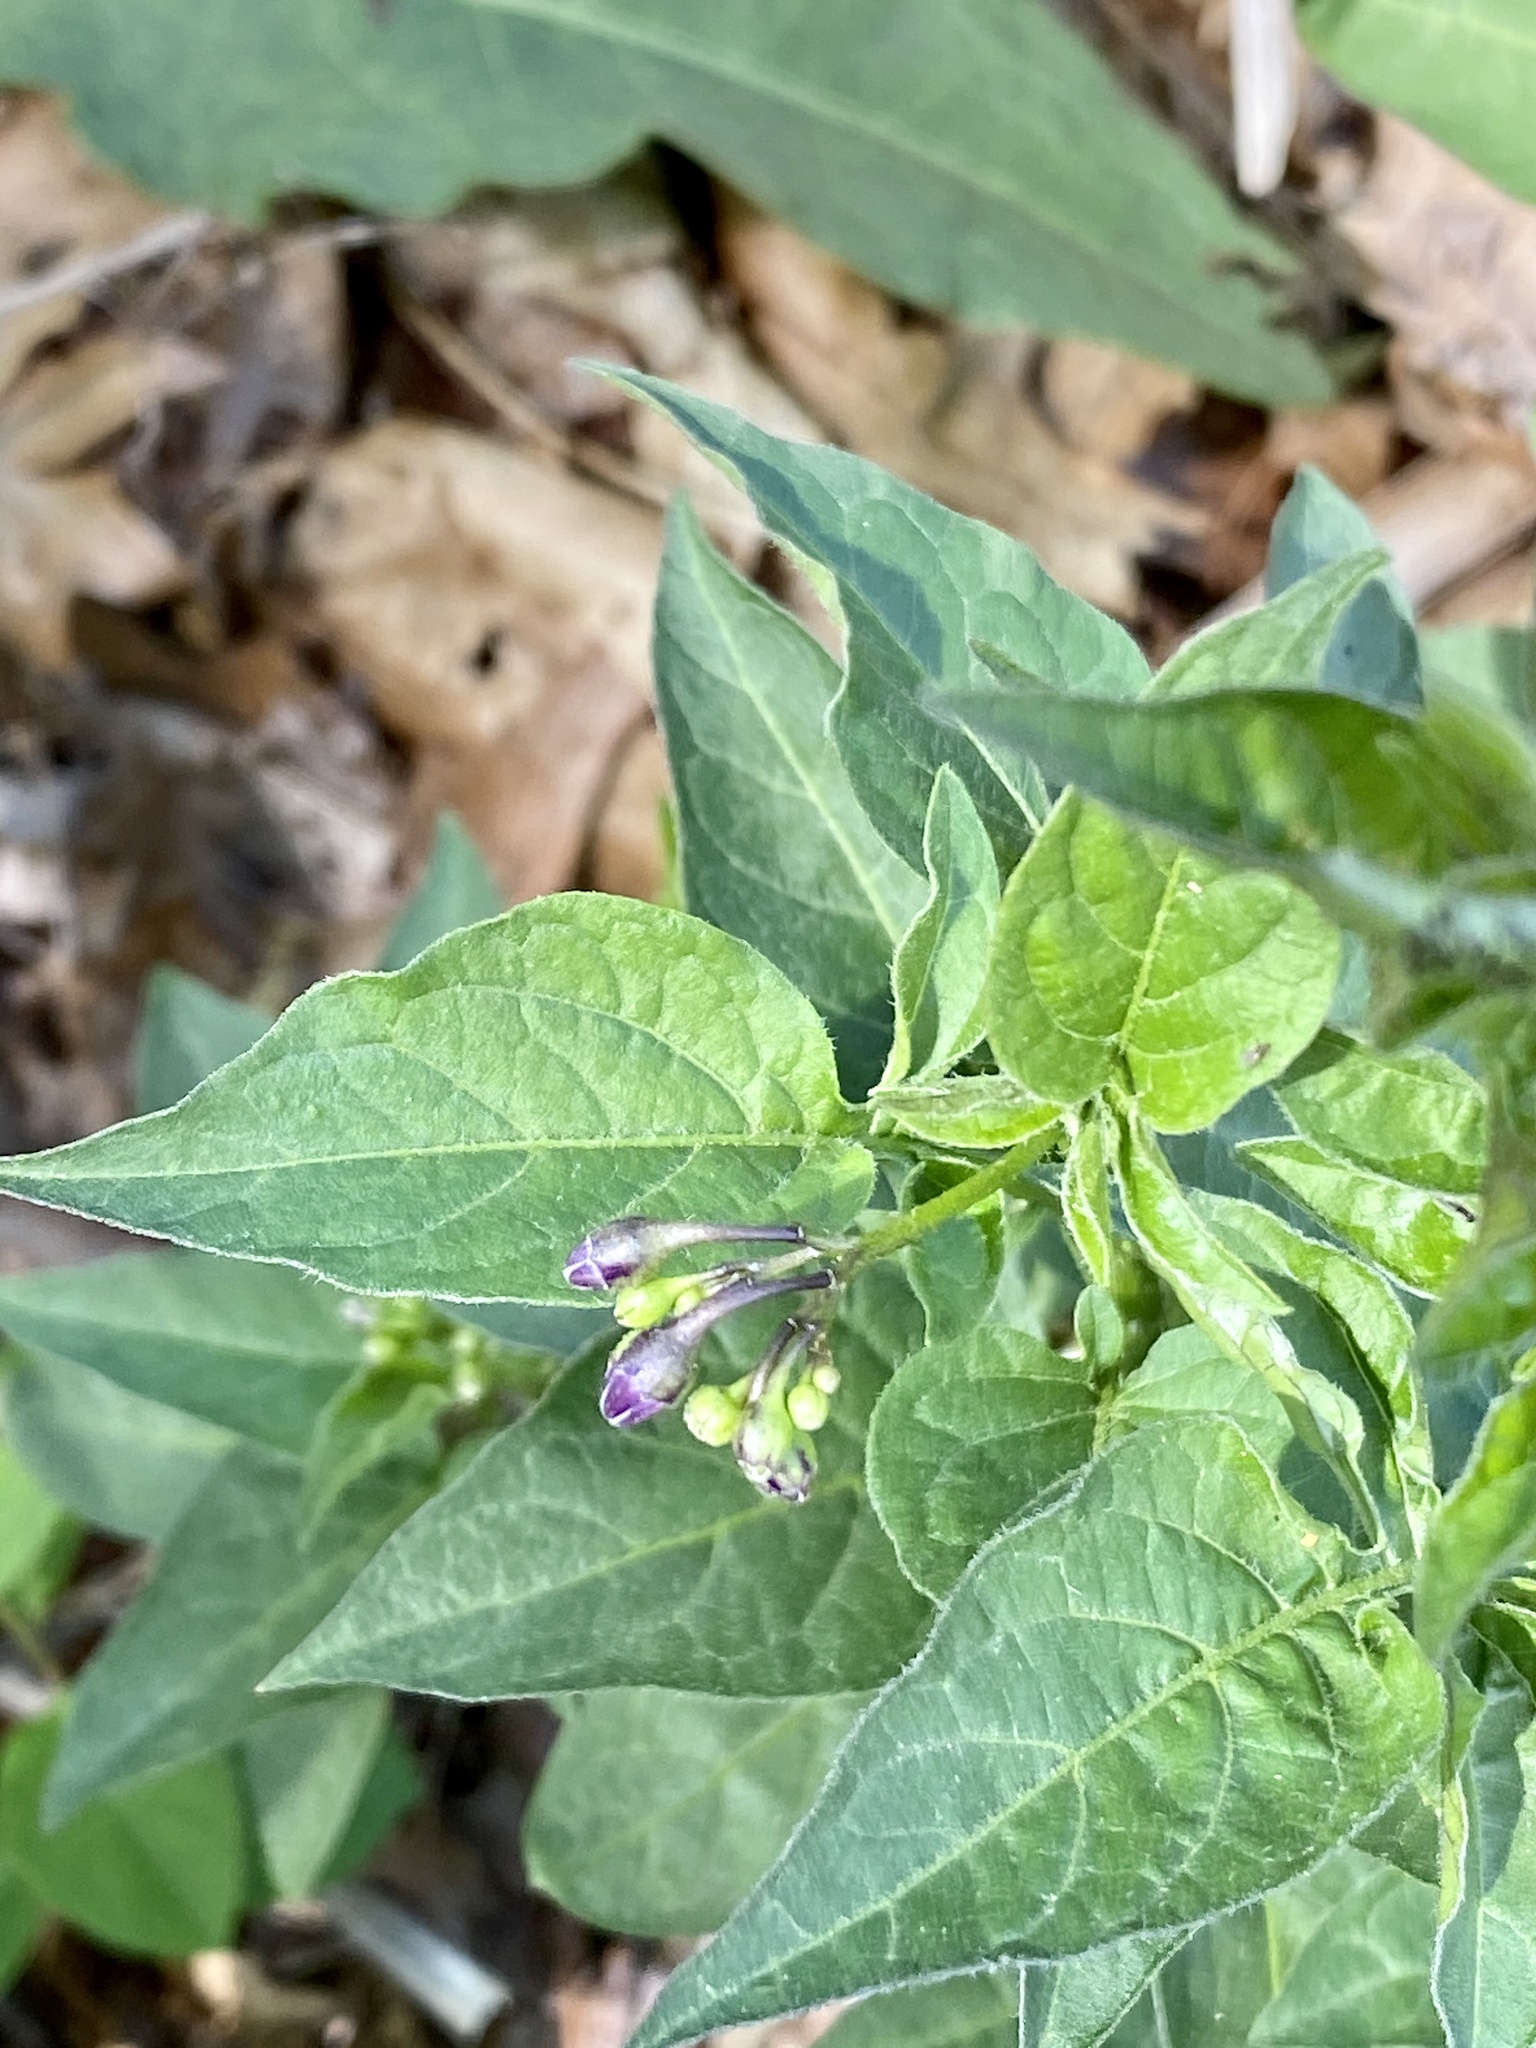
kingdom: Plantae
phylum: Tracheophyta
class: Magnoliopsida
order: Solanales
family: Solanaceae
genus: Solanum
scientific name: Solanum dulcamara
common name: Climbing nightshade
